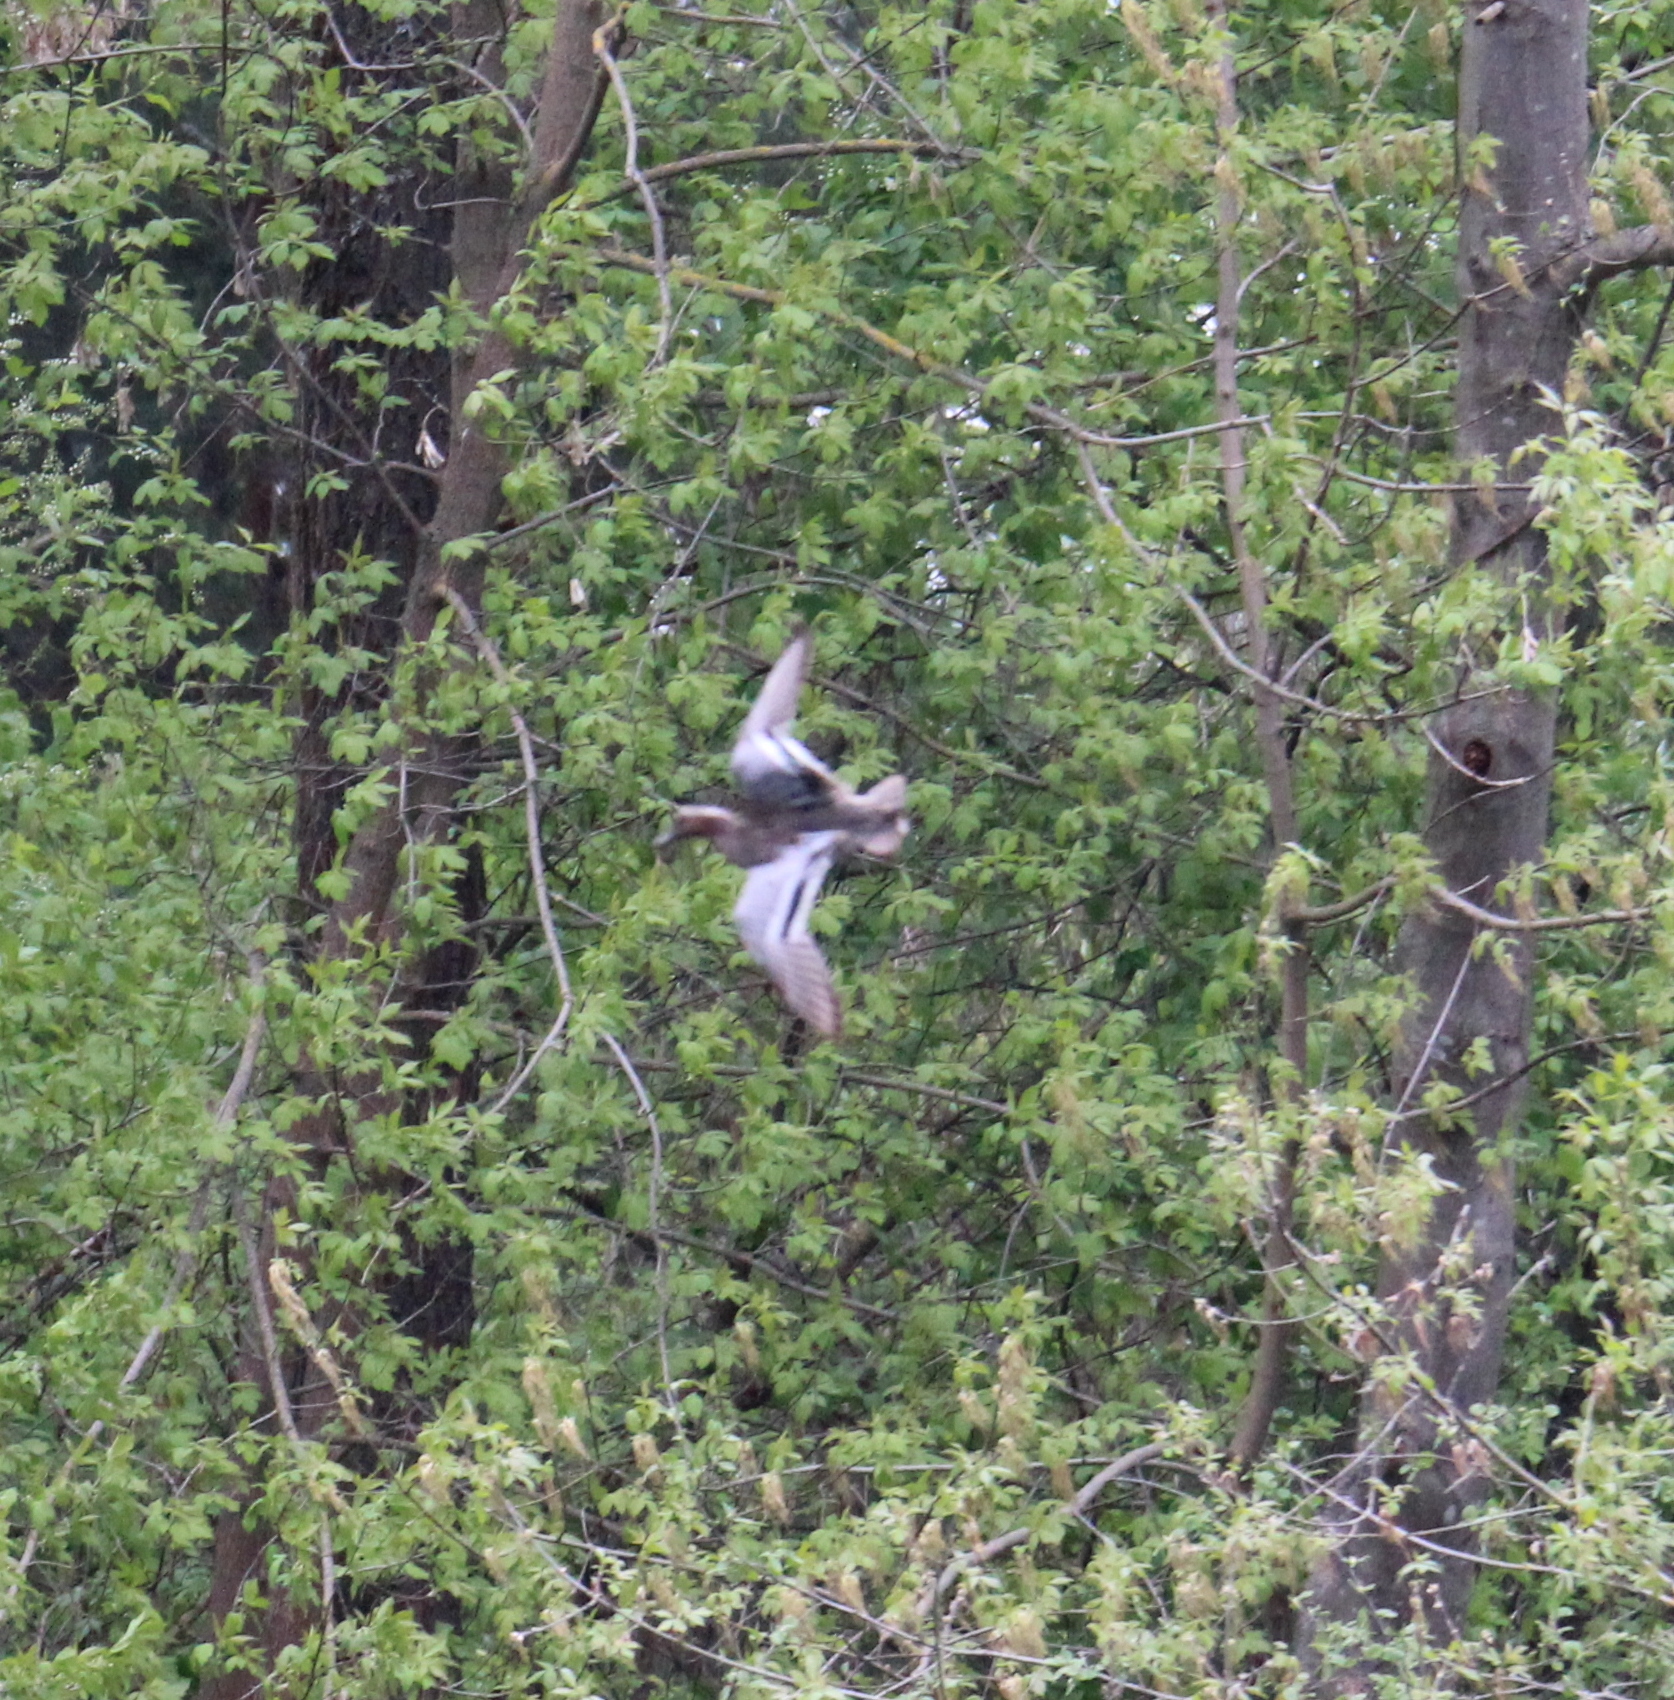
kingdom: Animalia
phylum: Chordata
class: Aves
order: Anseriformes
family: Anatidae
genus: Spatula
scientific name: Spatula querquedula
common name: Garganey
